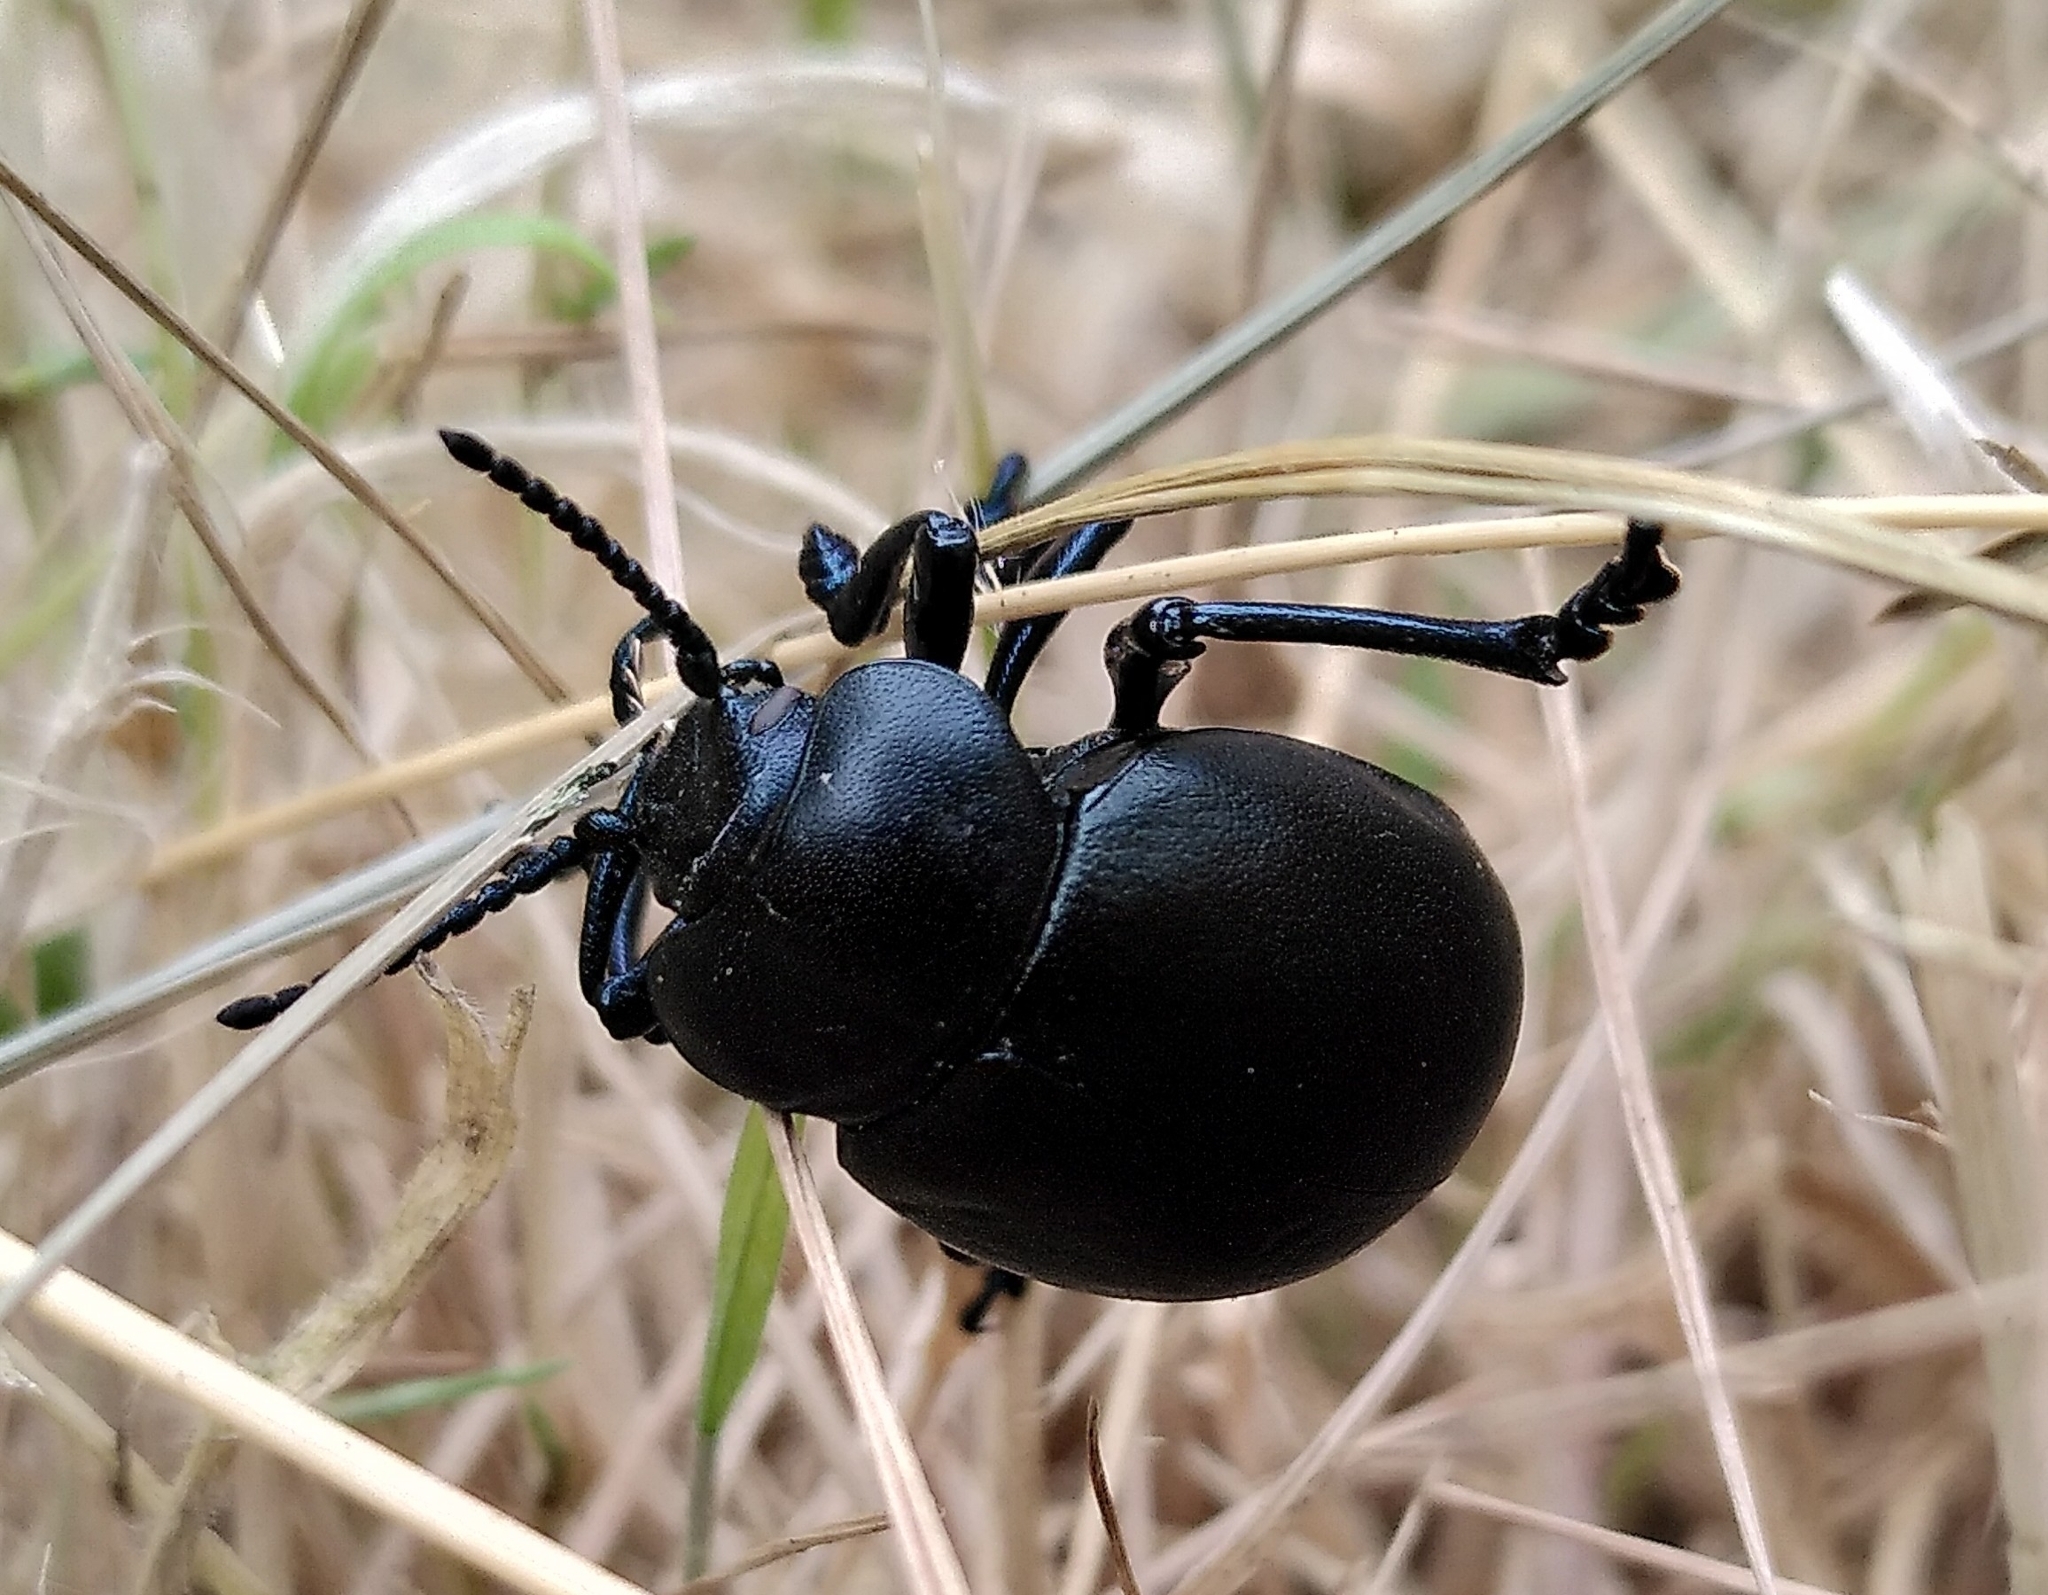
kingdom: Animalia
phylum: Arthropoda
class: Insecta
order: Coleoptera
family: Chrysomelidae
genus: Timarcha
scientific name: Timarcha tenebricosa
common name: Bloody-nosed beetle
